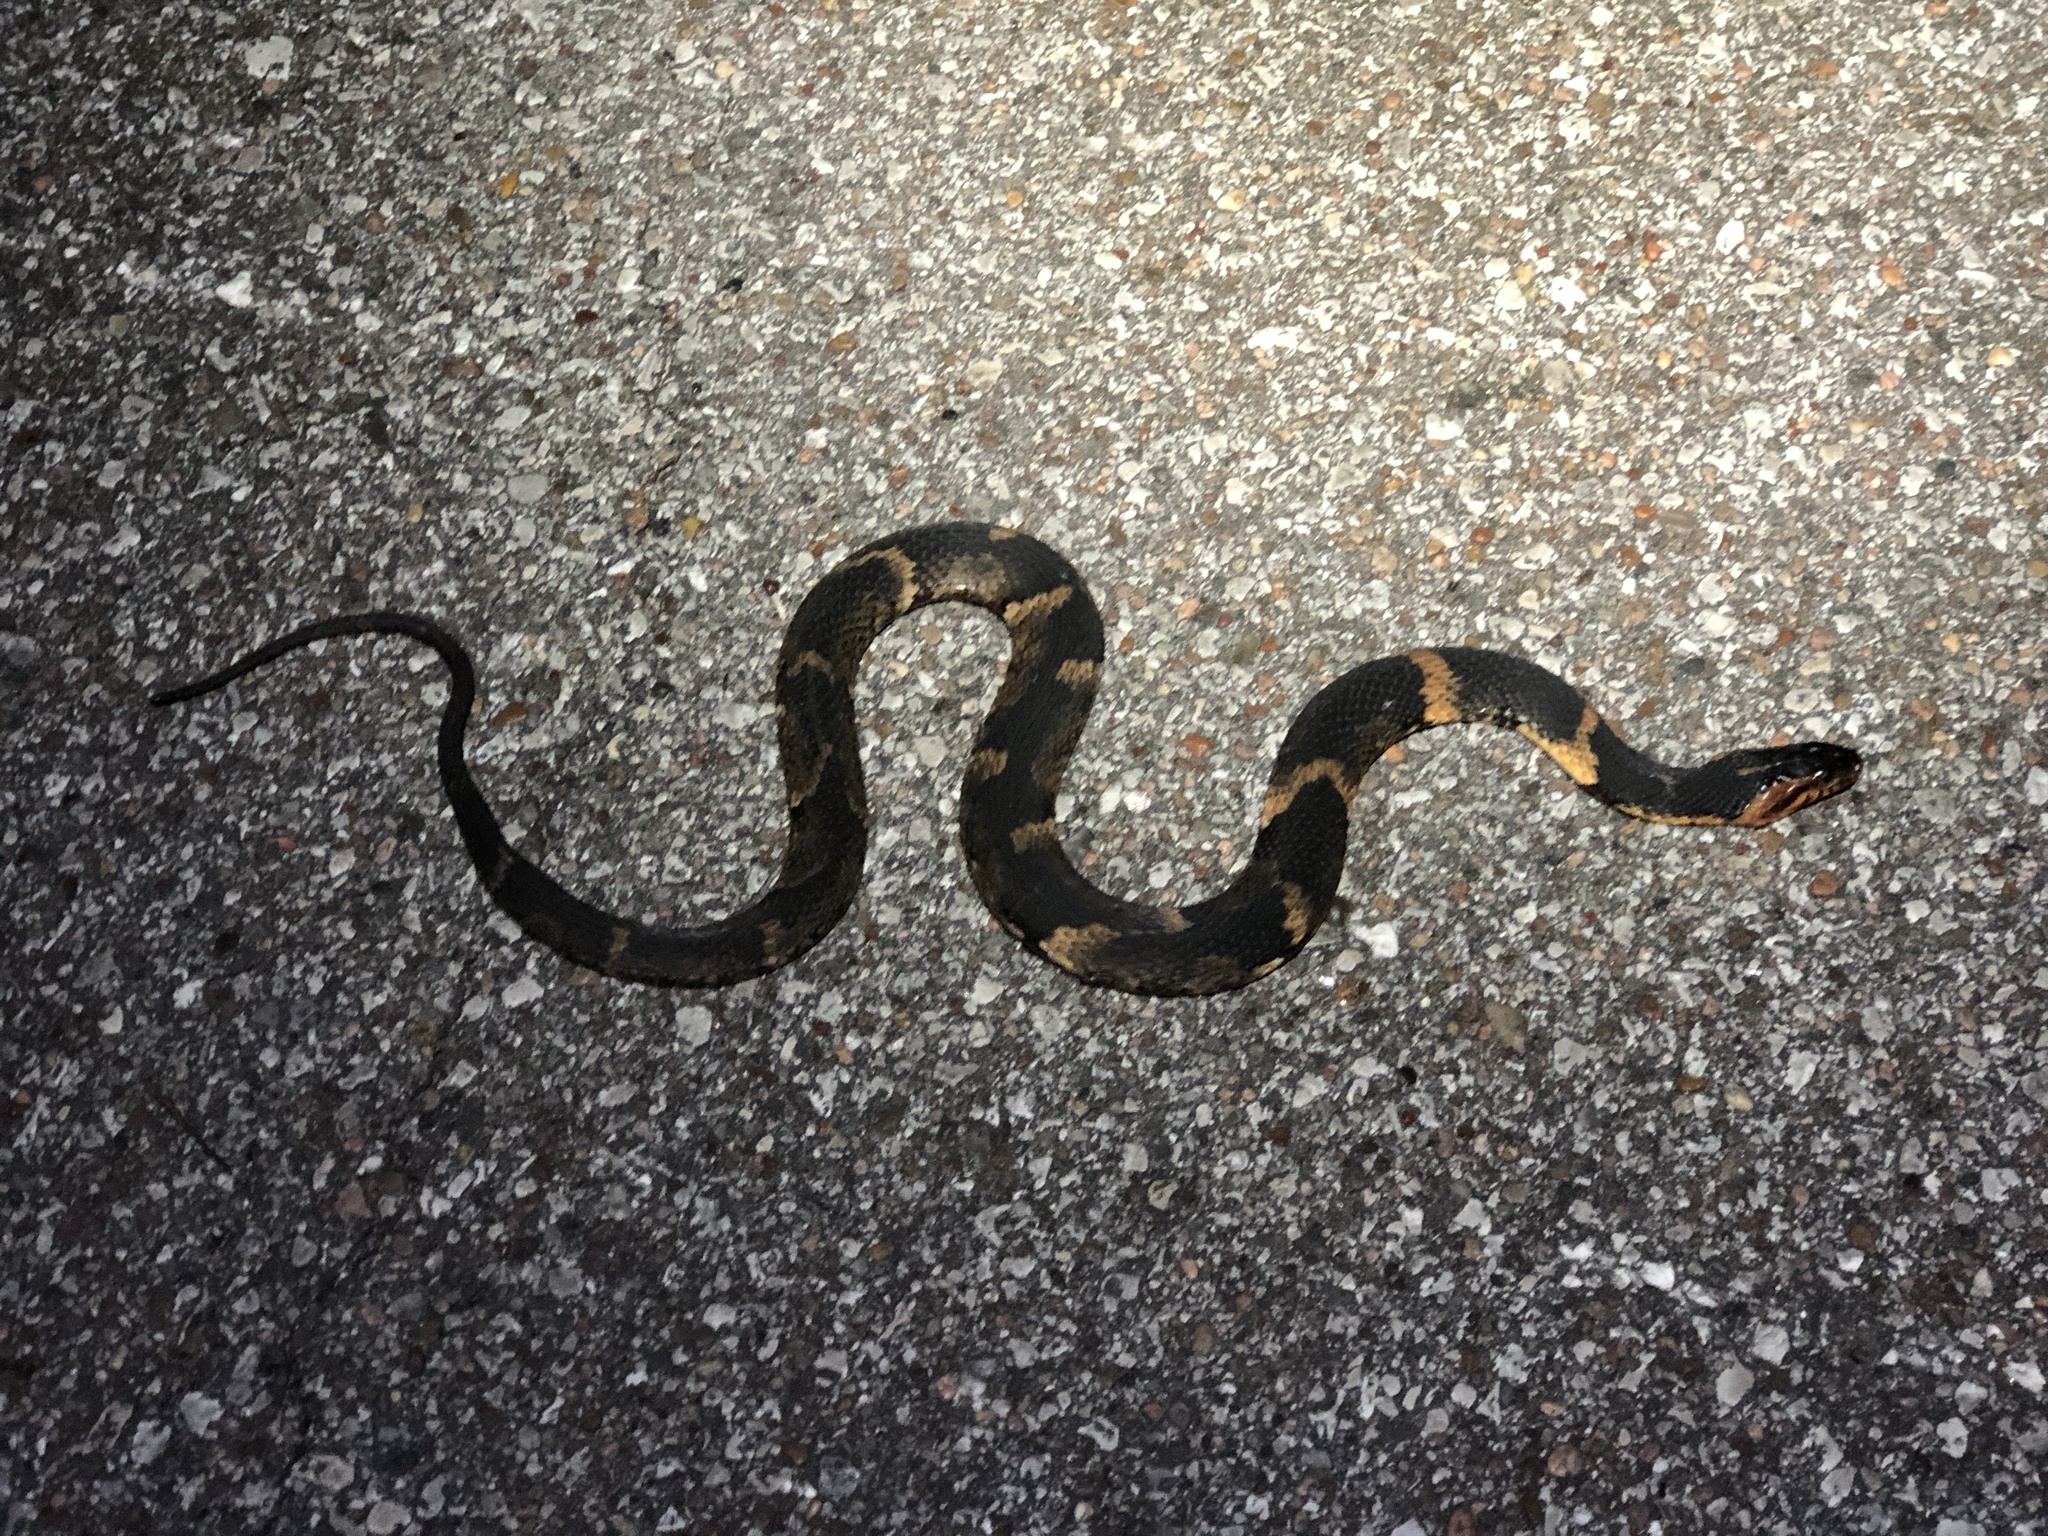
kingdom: Animalia
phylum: Chordata
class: Squamata
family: Colubridae
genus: Nerodia
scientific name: Nerodia fasciata
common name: Southern water snake
